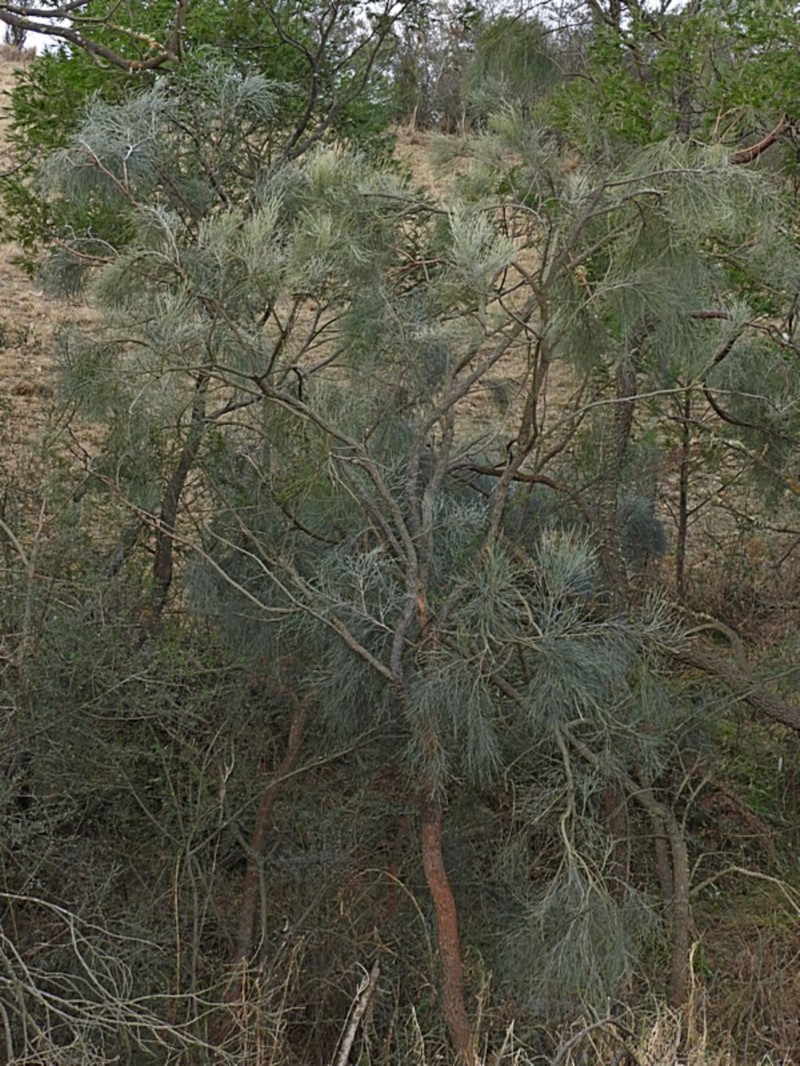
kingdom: Plantae
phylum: Tracheophyta
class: Magnoliopsida
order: Fabales
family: Fabaceae
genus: Jacksonia
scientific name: Jacksonia scoparia
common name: Dogwood
